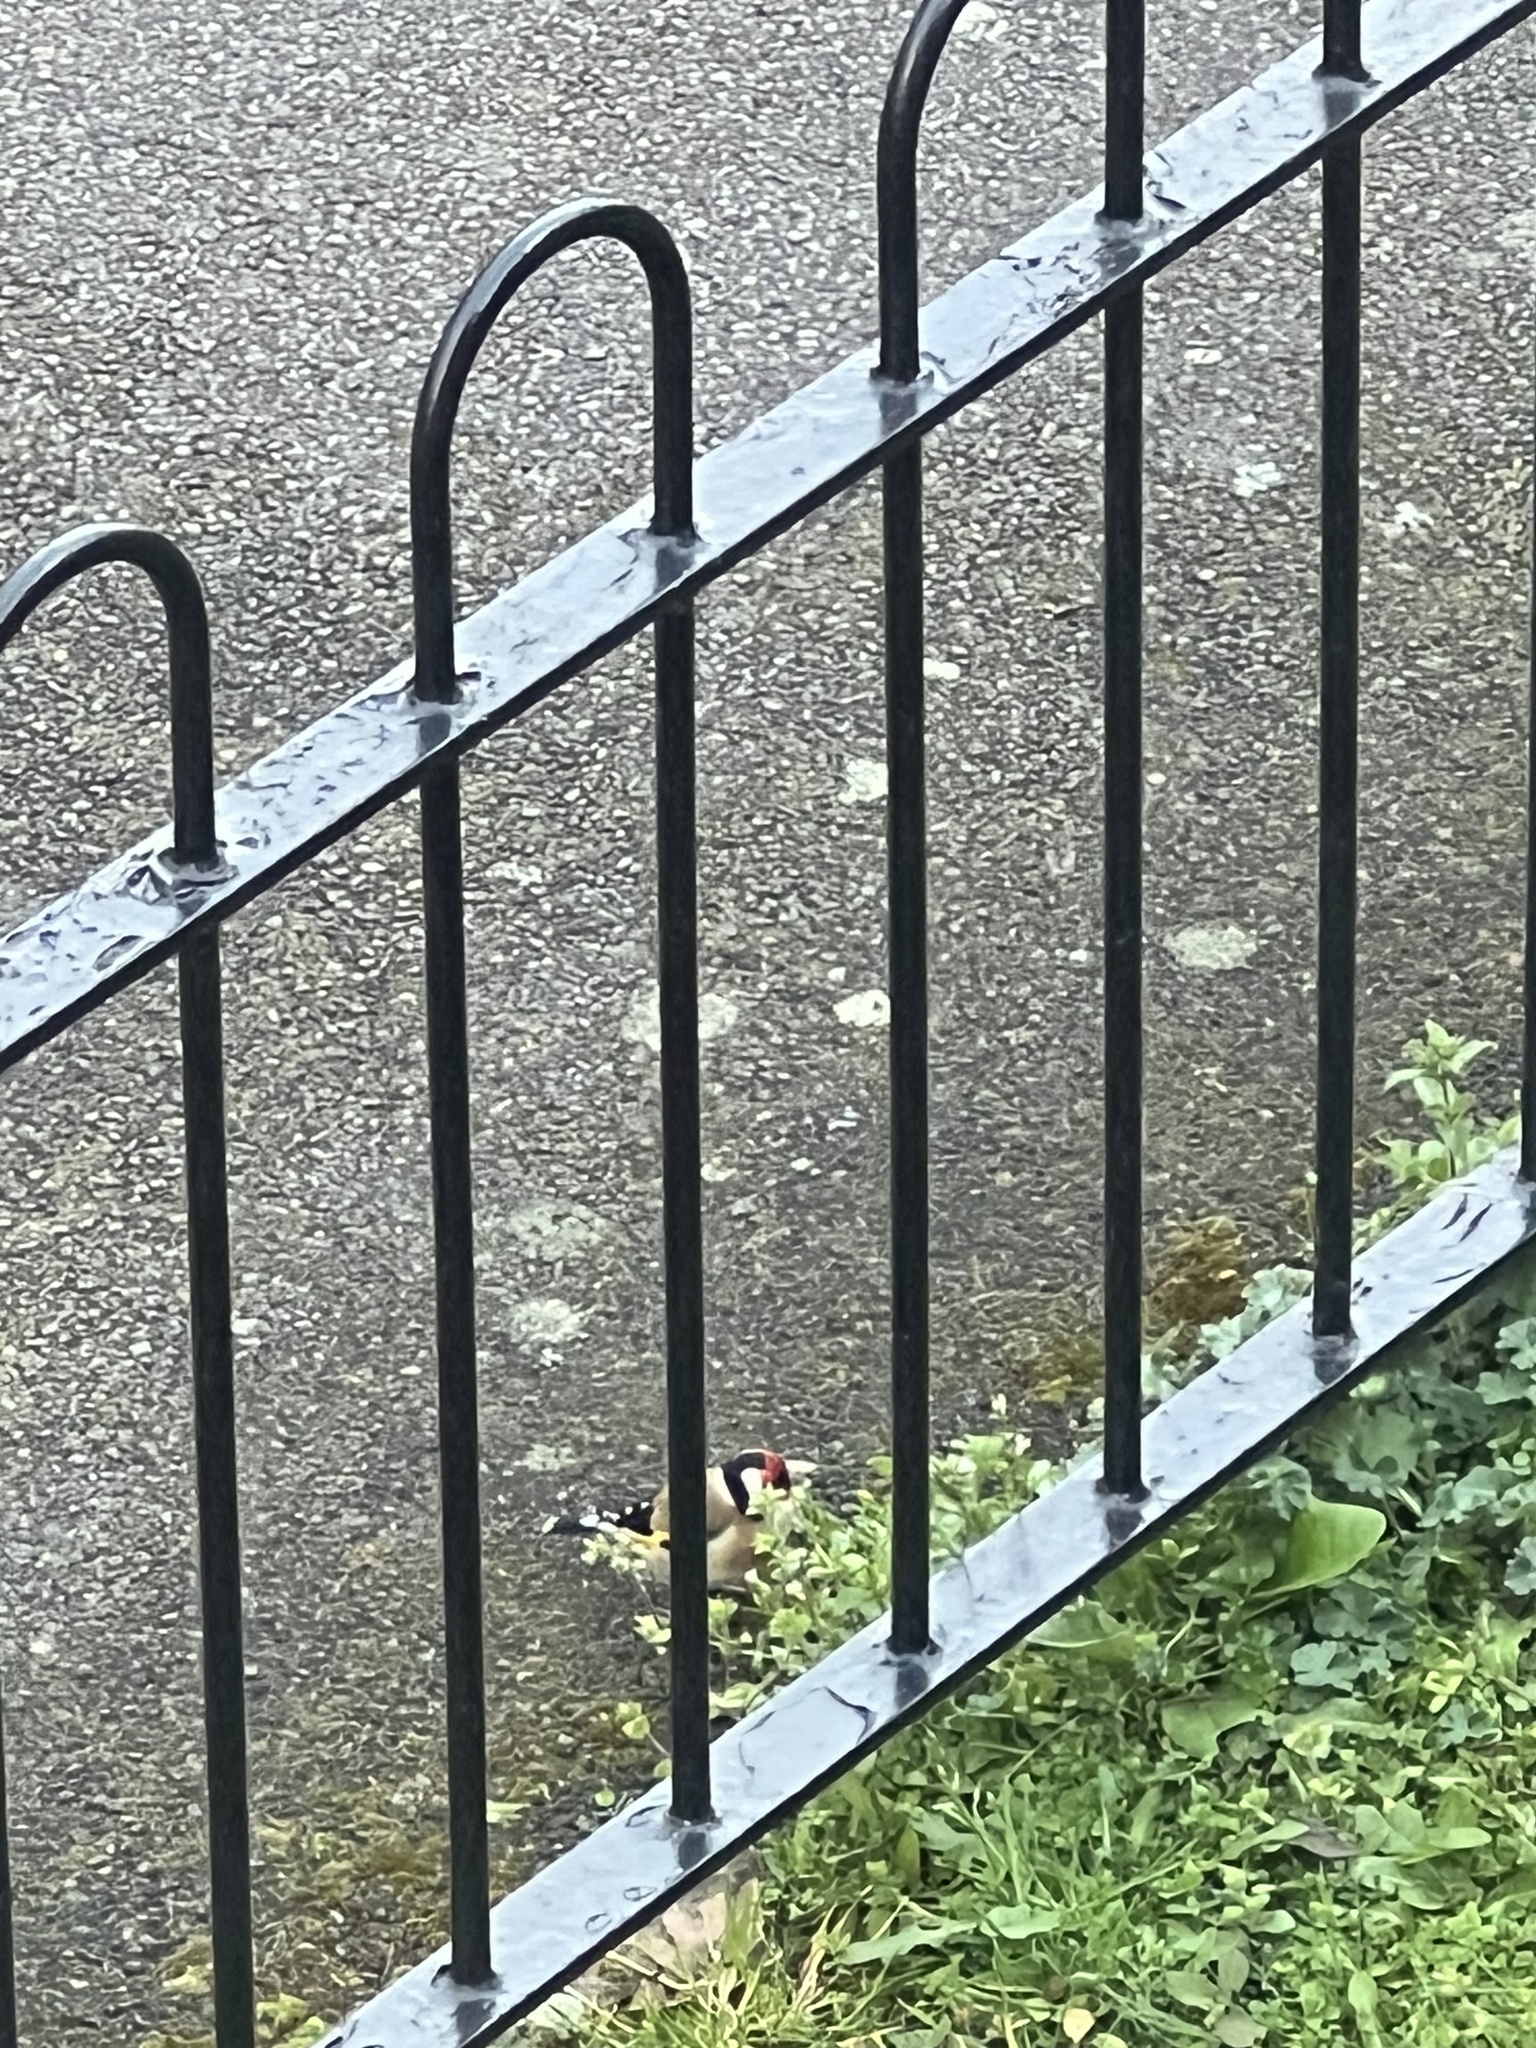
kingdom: Animalia
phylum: Chordata
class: Aves
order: Passeriformes
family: Fringillidae
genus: Carduelis
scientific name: Carduelis carduelis
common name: European goldfinch
